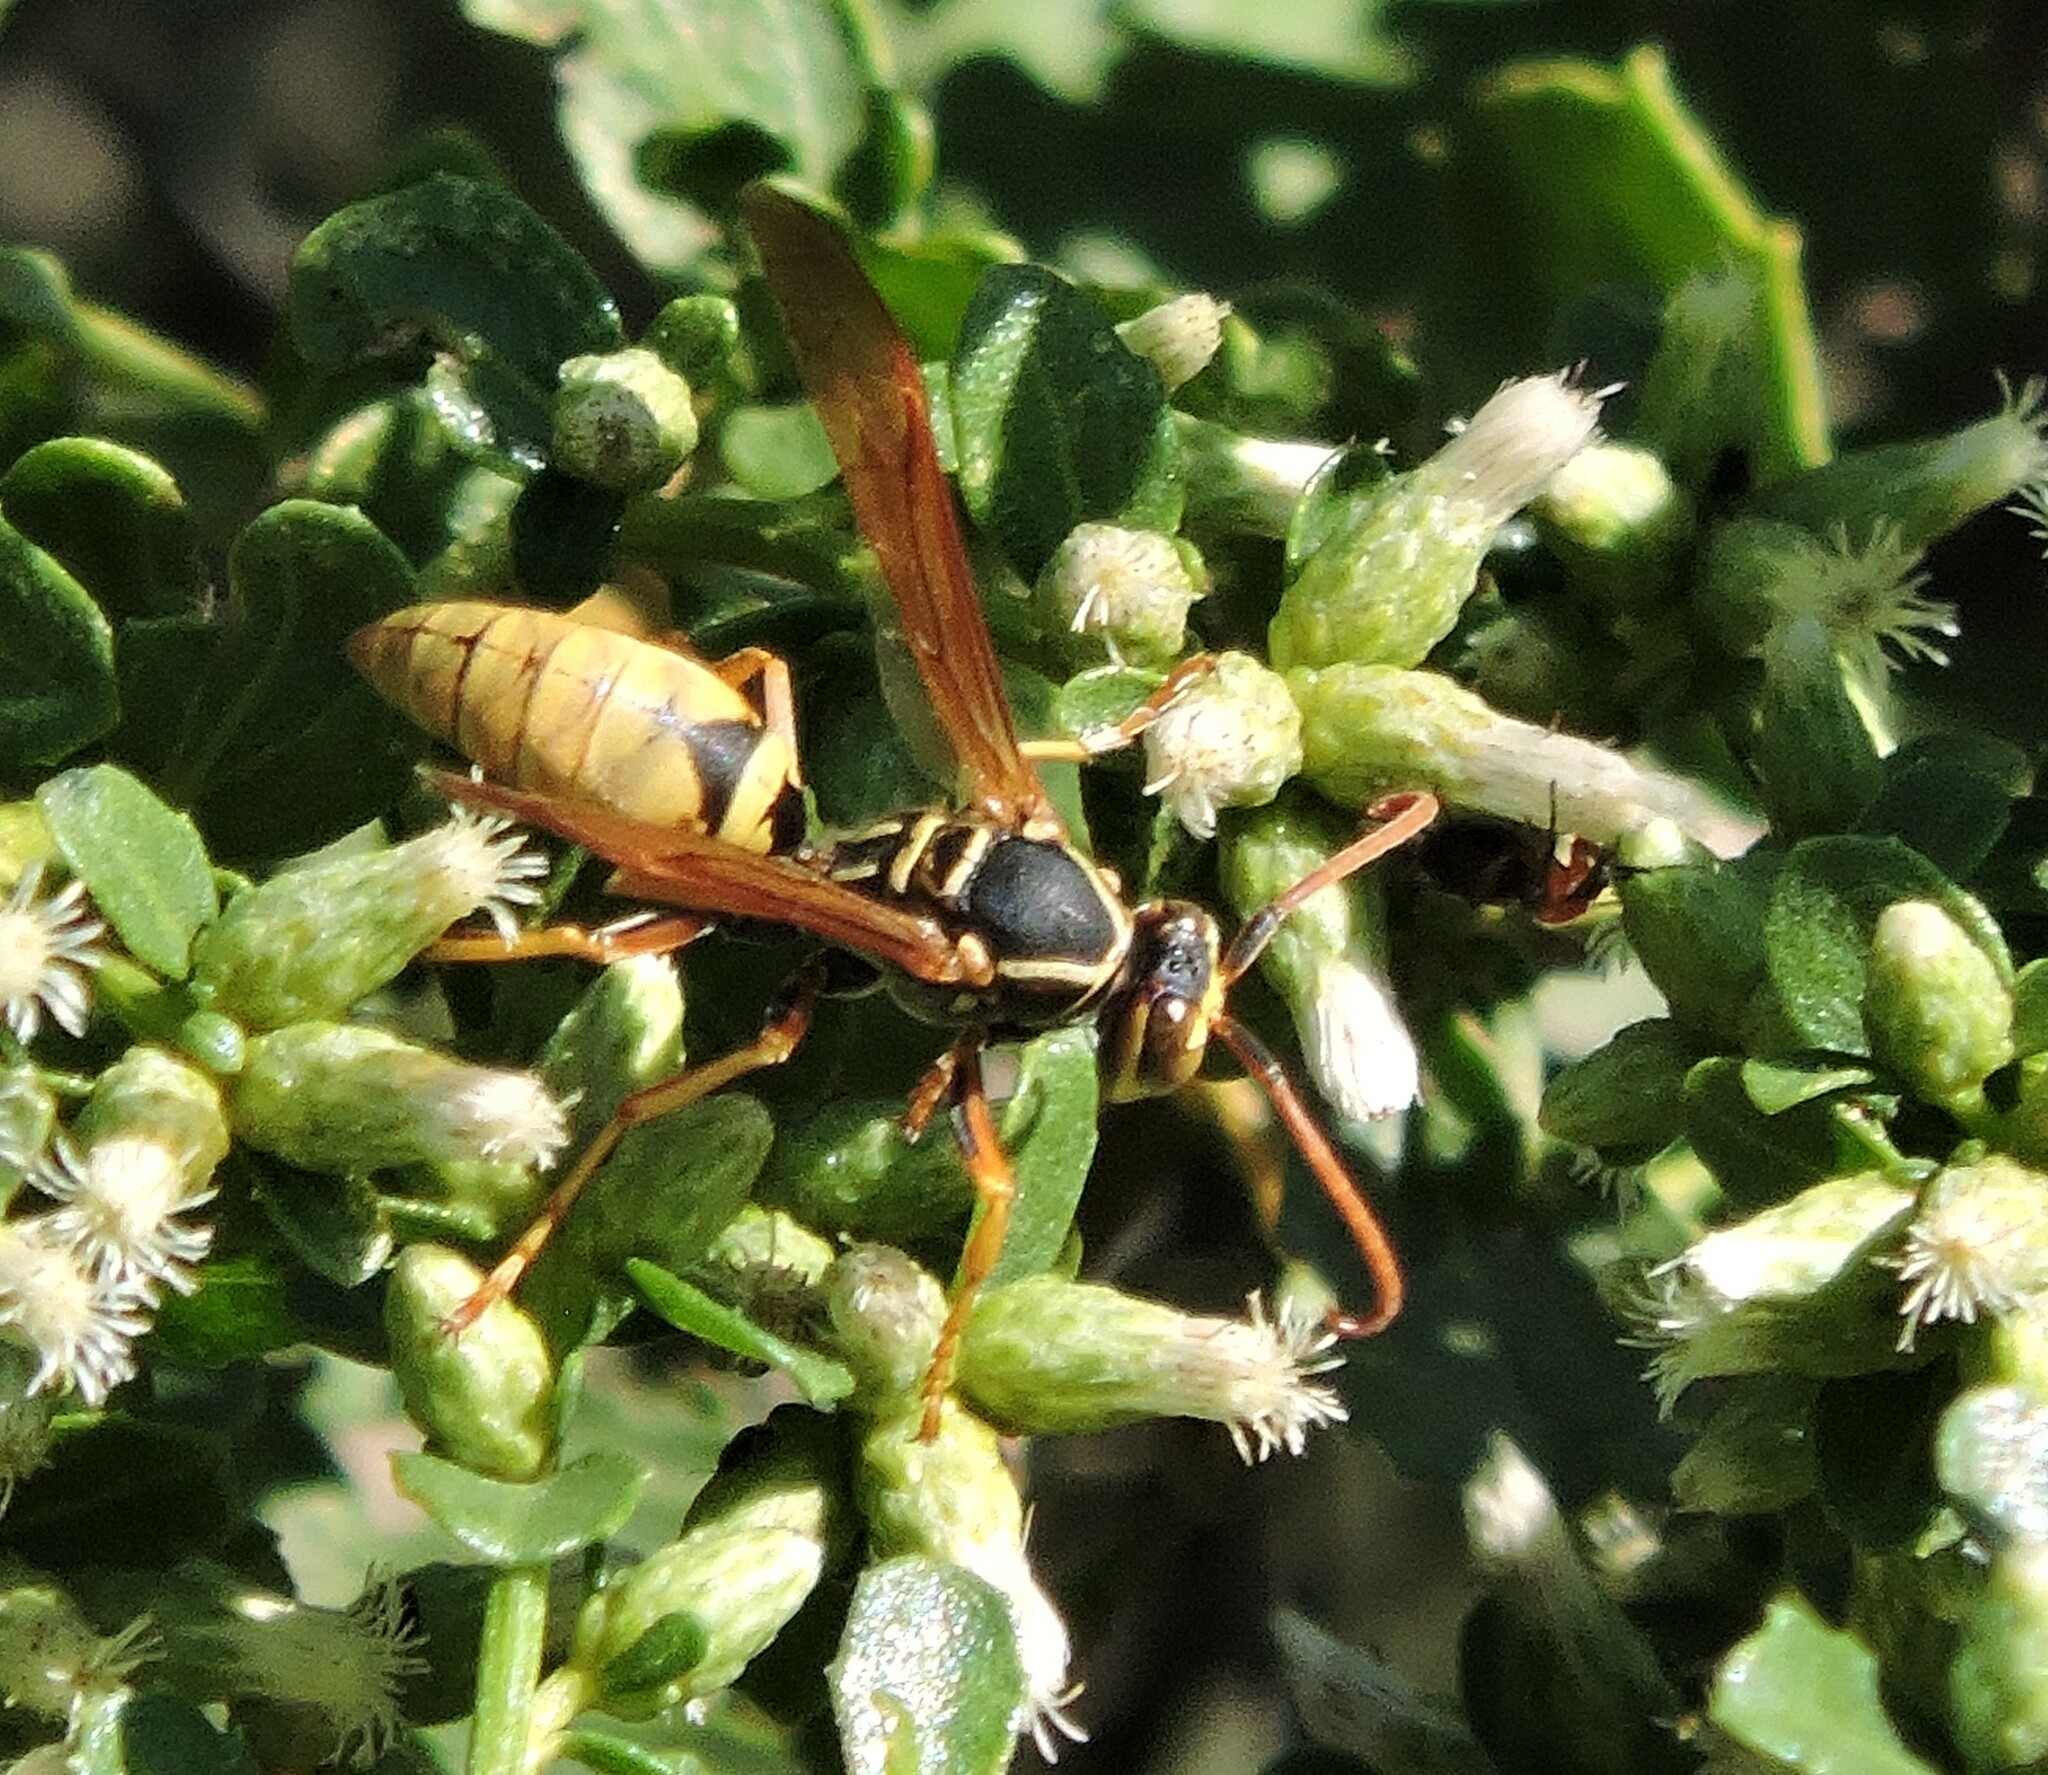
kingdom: Animalia
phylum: Arthropoda
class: Insecta
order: Hymenoptera
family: Eumenidae
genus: Polistes
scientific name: Polistes aurifer
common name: Paper wasp
